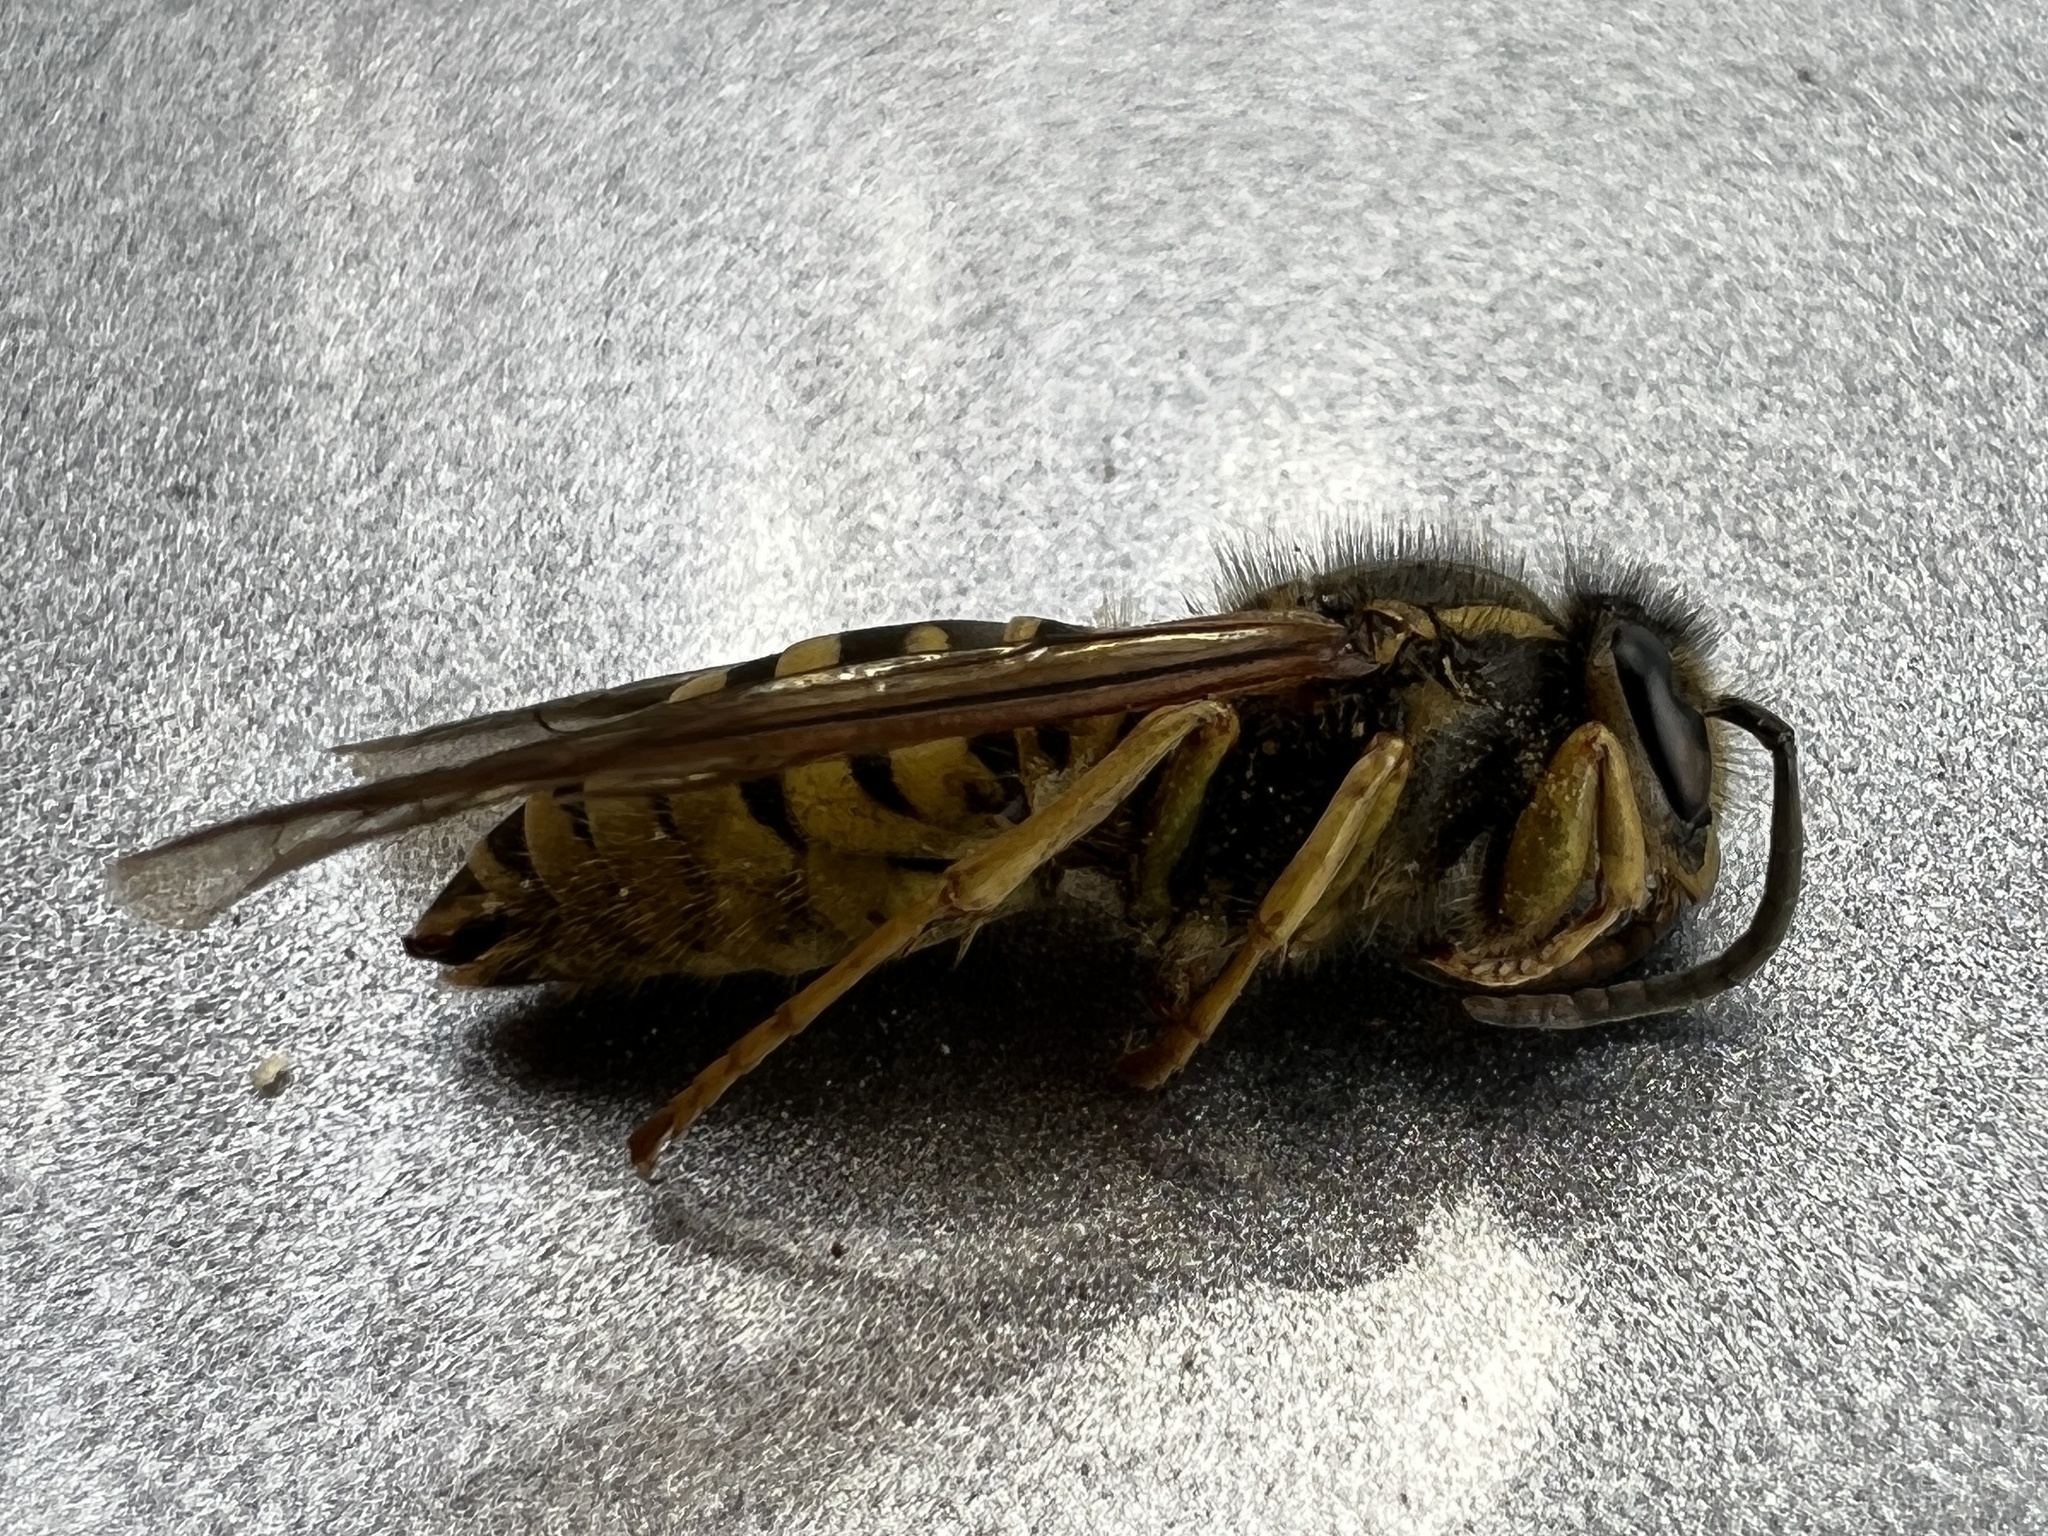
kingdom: Animalia
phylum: Arthropoda
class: Insecta
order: Hymenoptera
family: Vespidae
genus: Vespula
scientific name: Vespula squamosa
